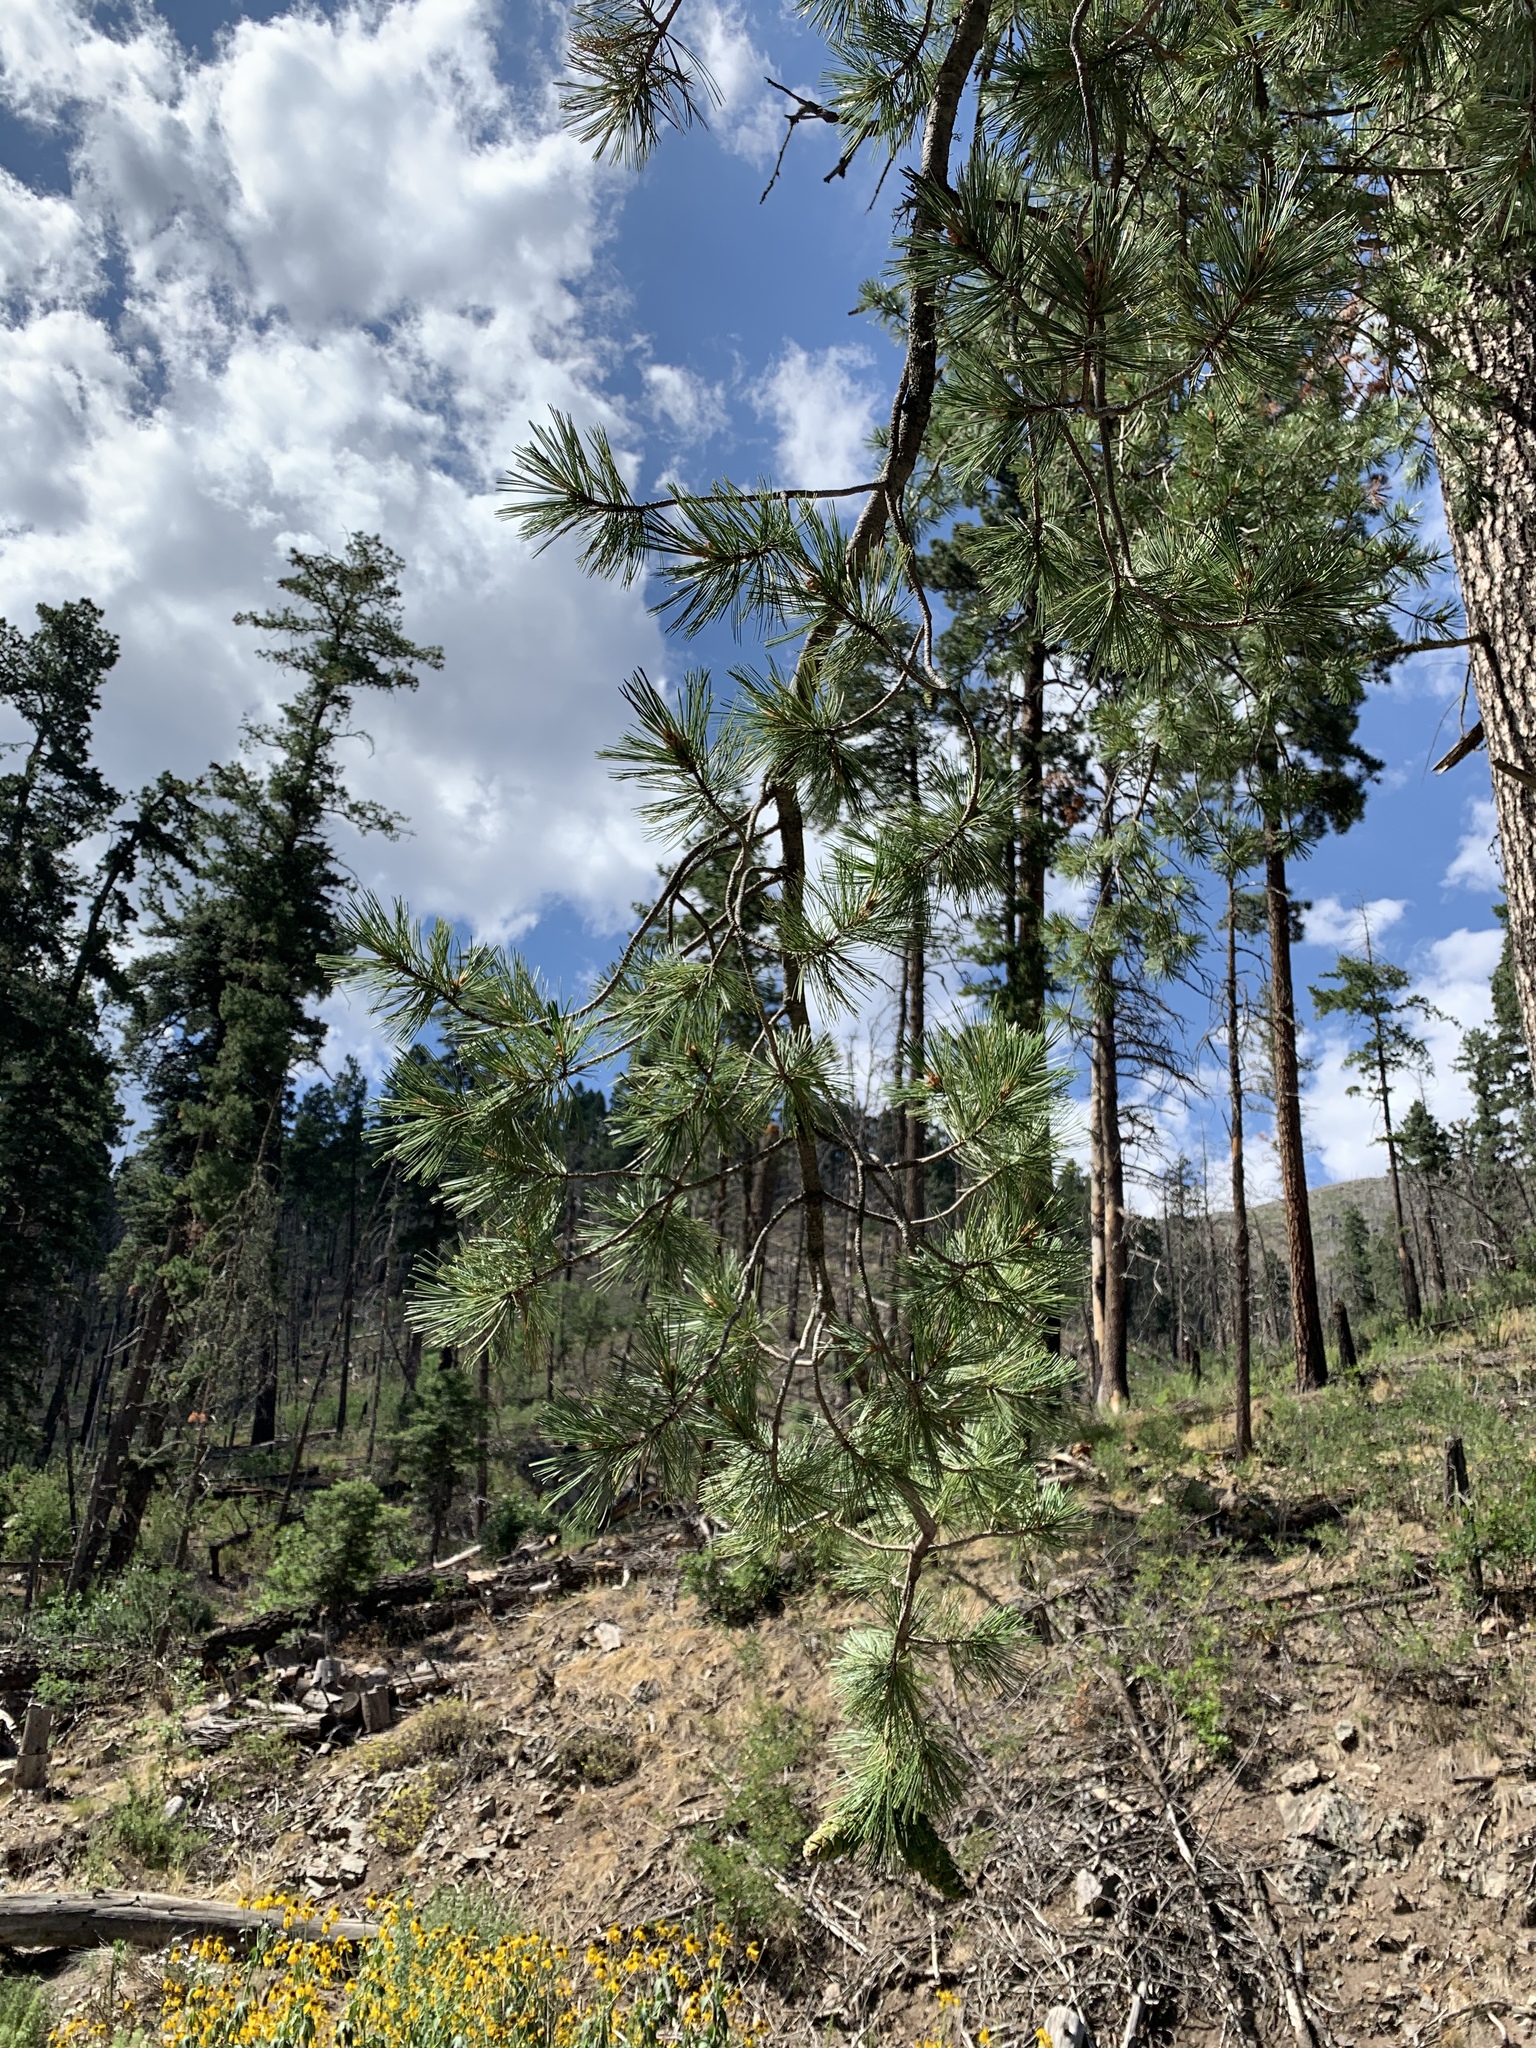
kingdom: Plantae
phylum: Tracheophyta
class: Pinopsida
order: Pinales
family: Pinaceae
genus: Pinus
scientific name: Pinus strobiformis
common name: Southwestern white pine
